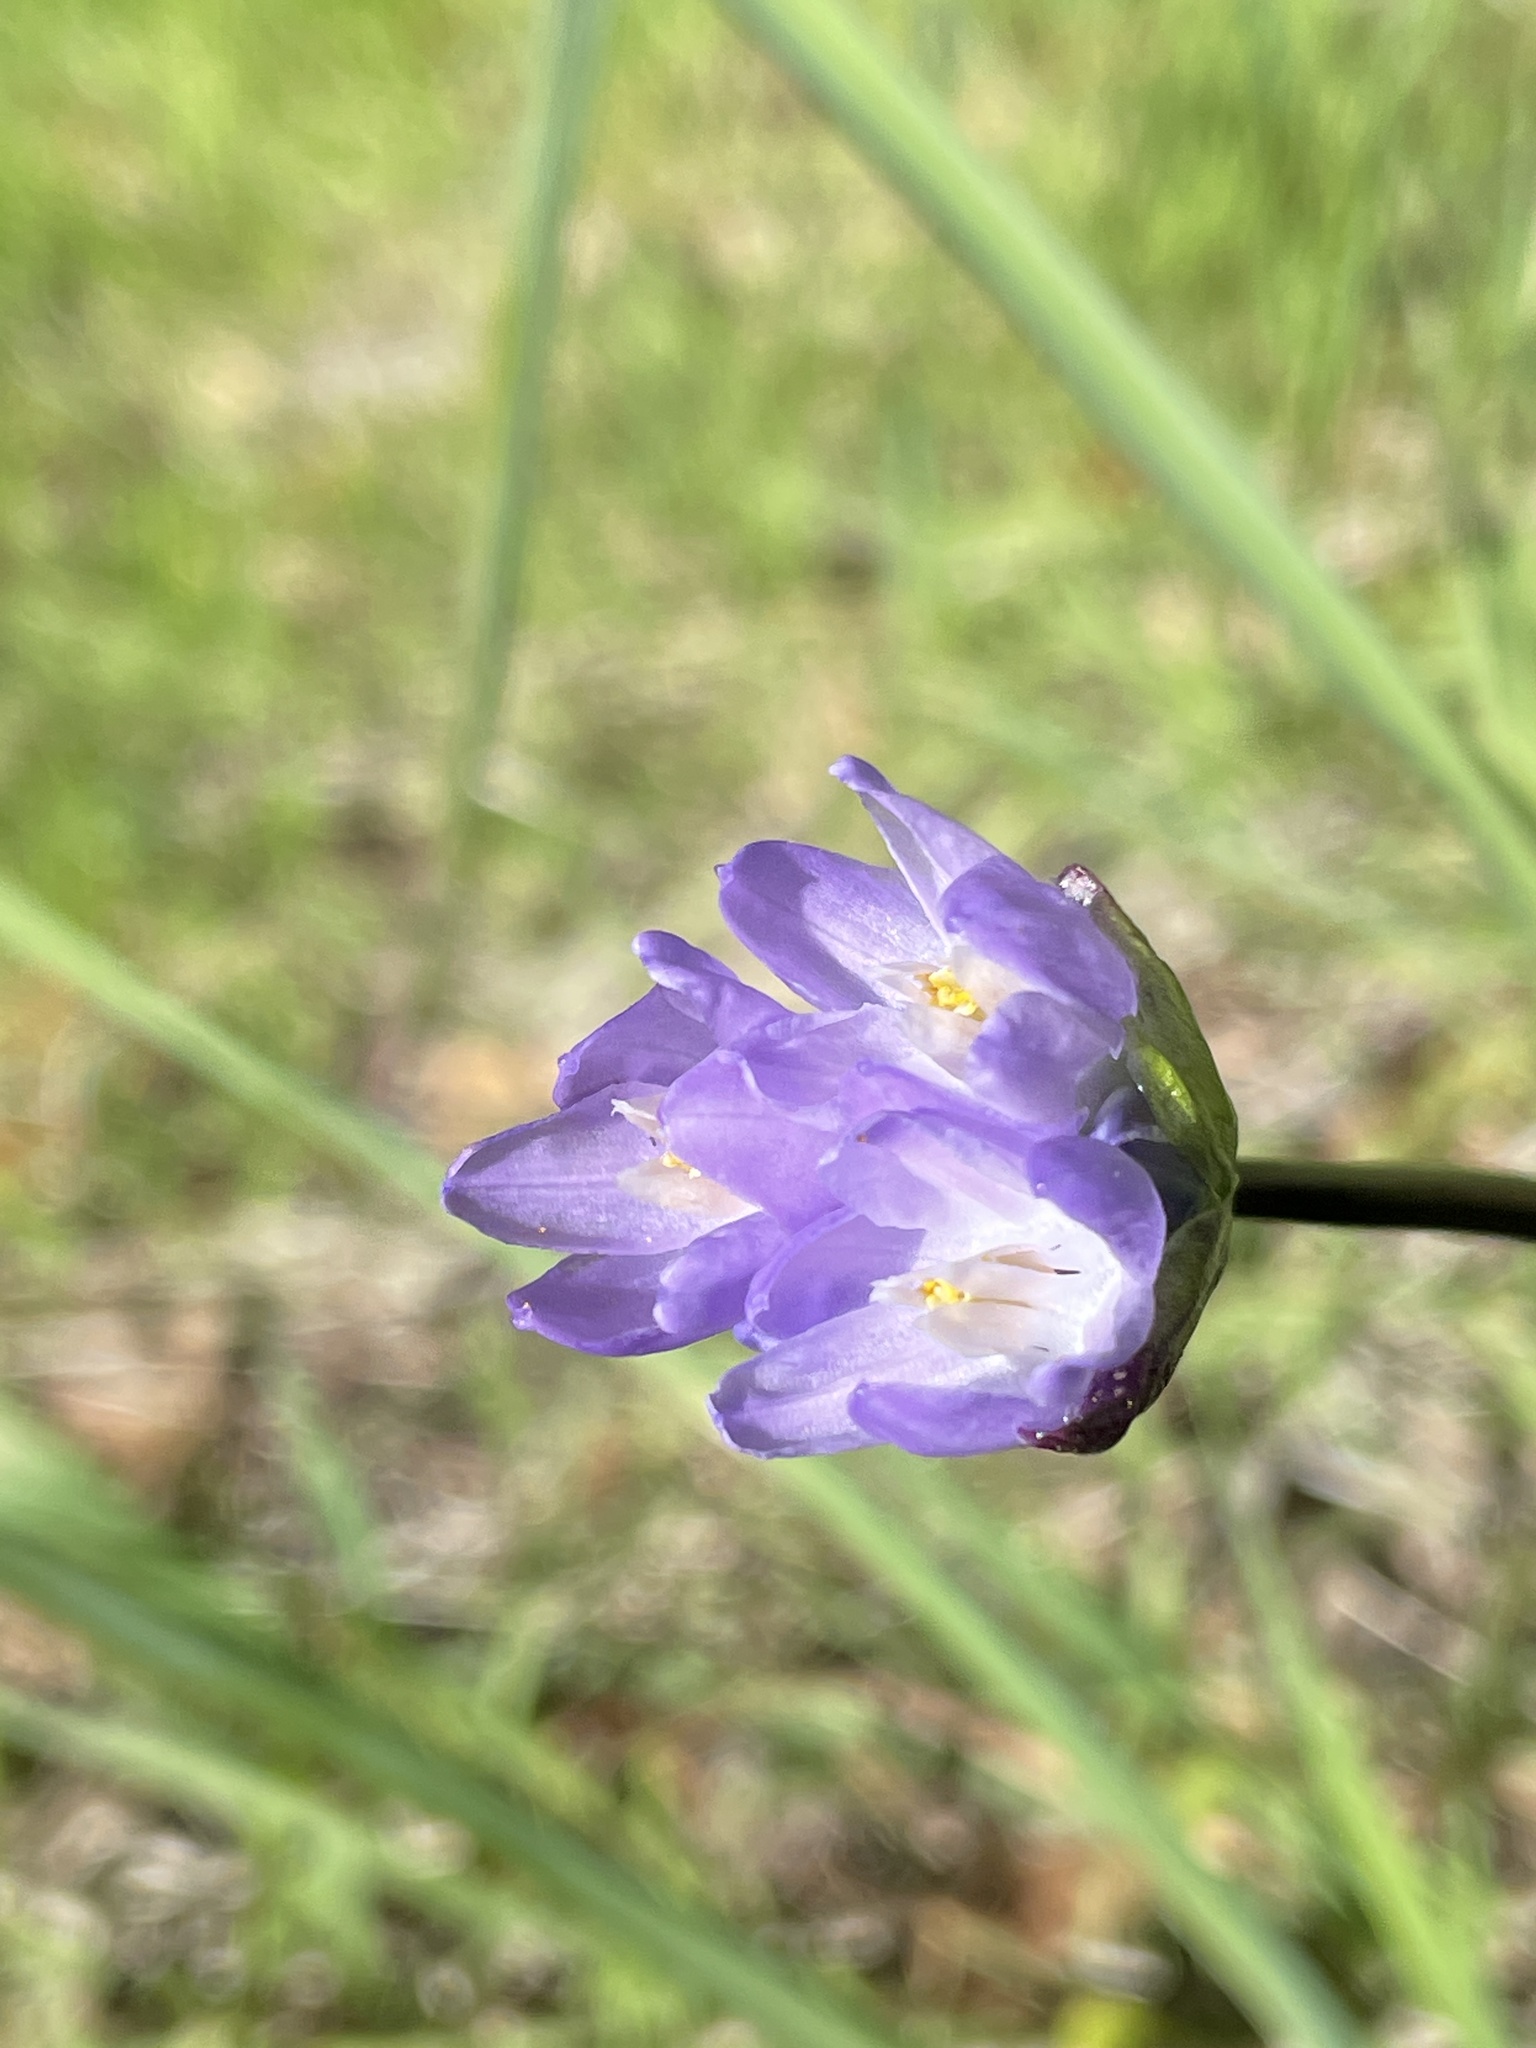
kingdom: Plantae
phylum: Tracheophyta
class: Liliopsida
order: Asparagales
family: Asparagaceae
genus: Dipterostemon
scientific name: Dipterostemon capitatus
